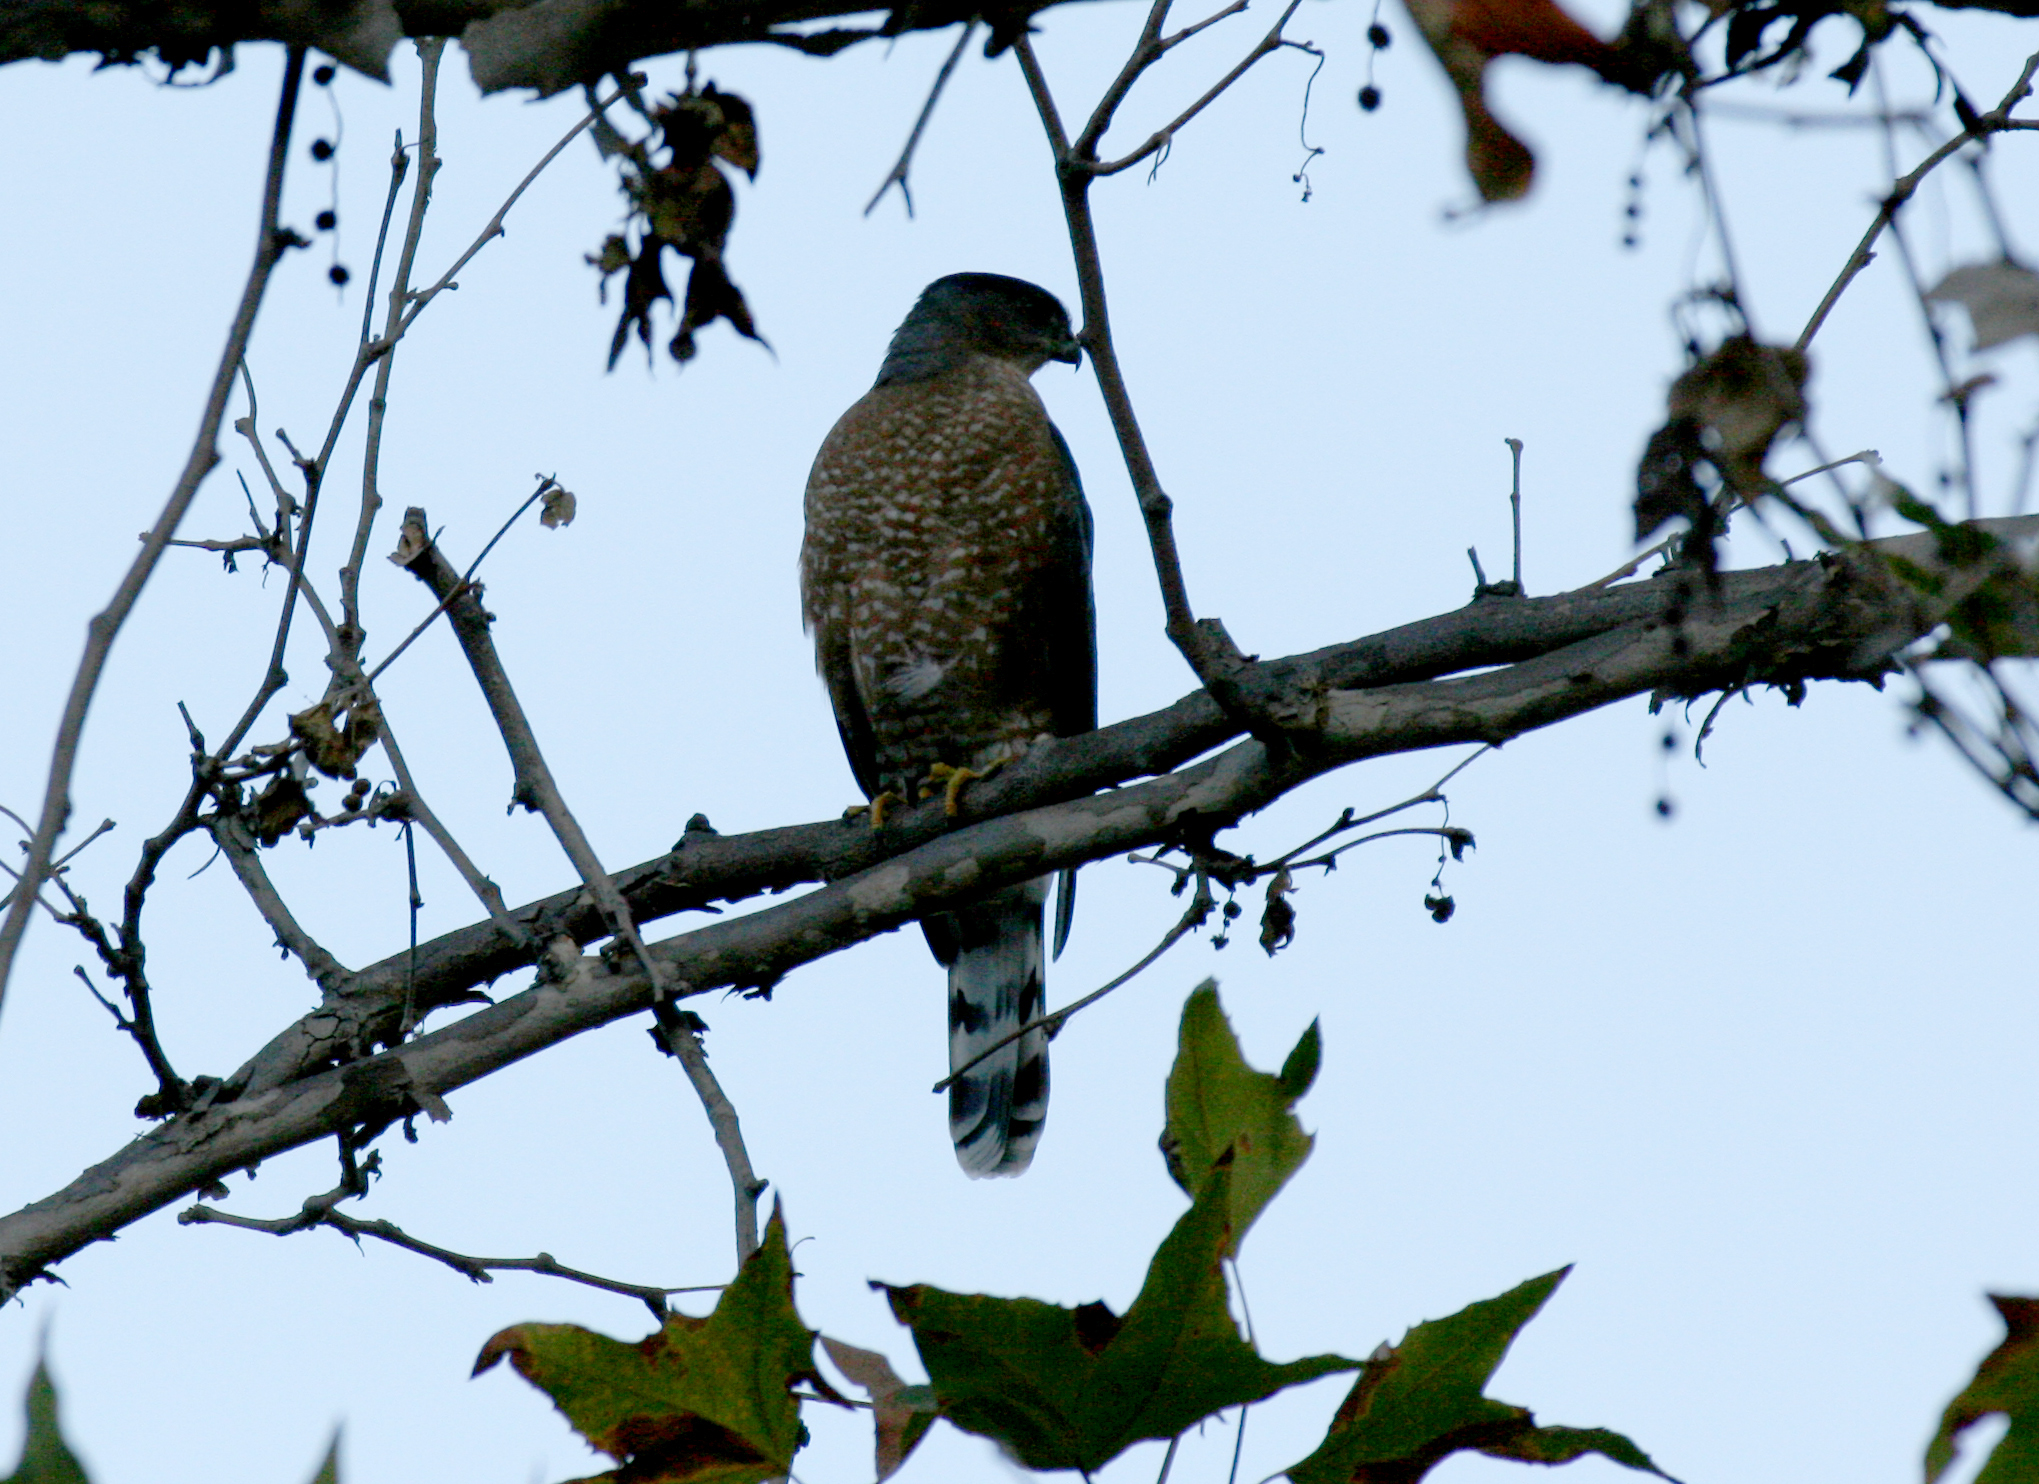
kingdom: Animalia
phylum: Chordata
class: Aves
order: Accipitriformes
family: Accipitridae
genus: Accipiter
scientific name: Accipiter cooperii
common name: Cooper's hawk
